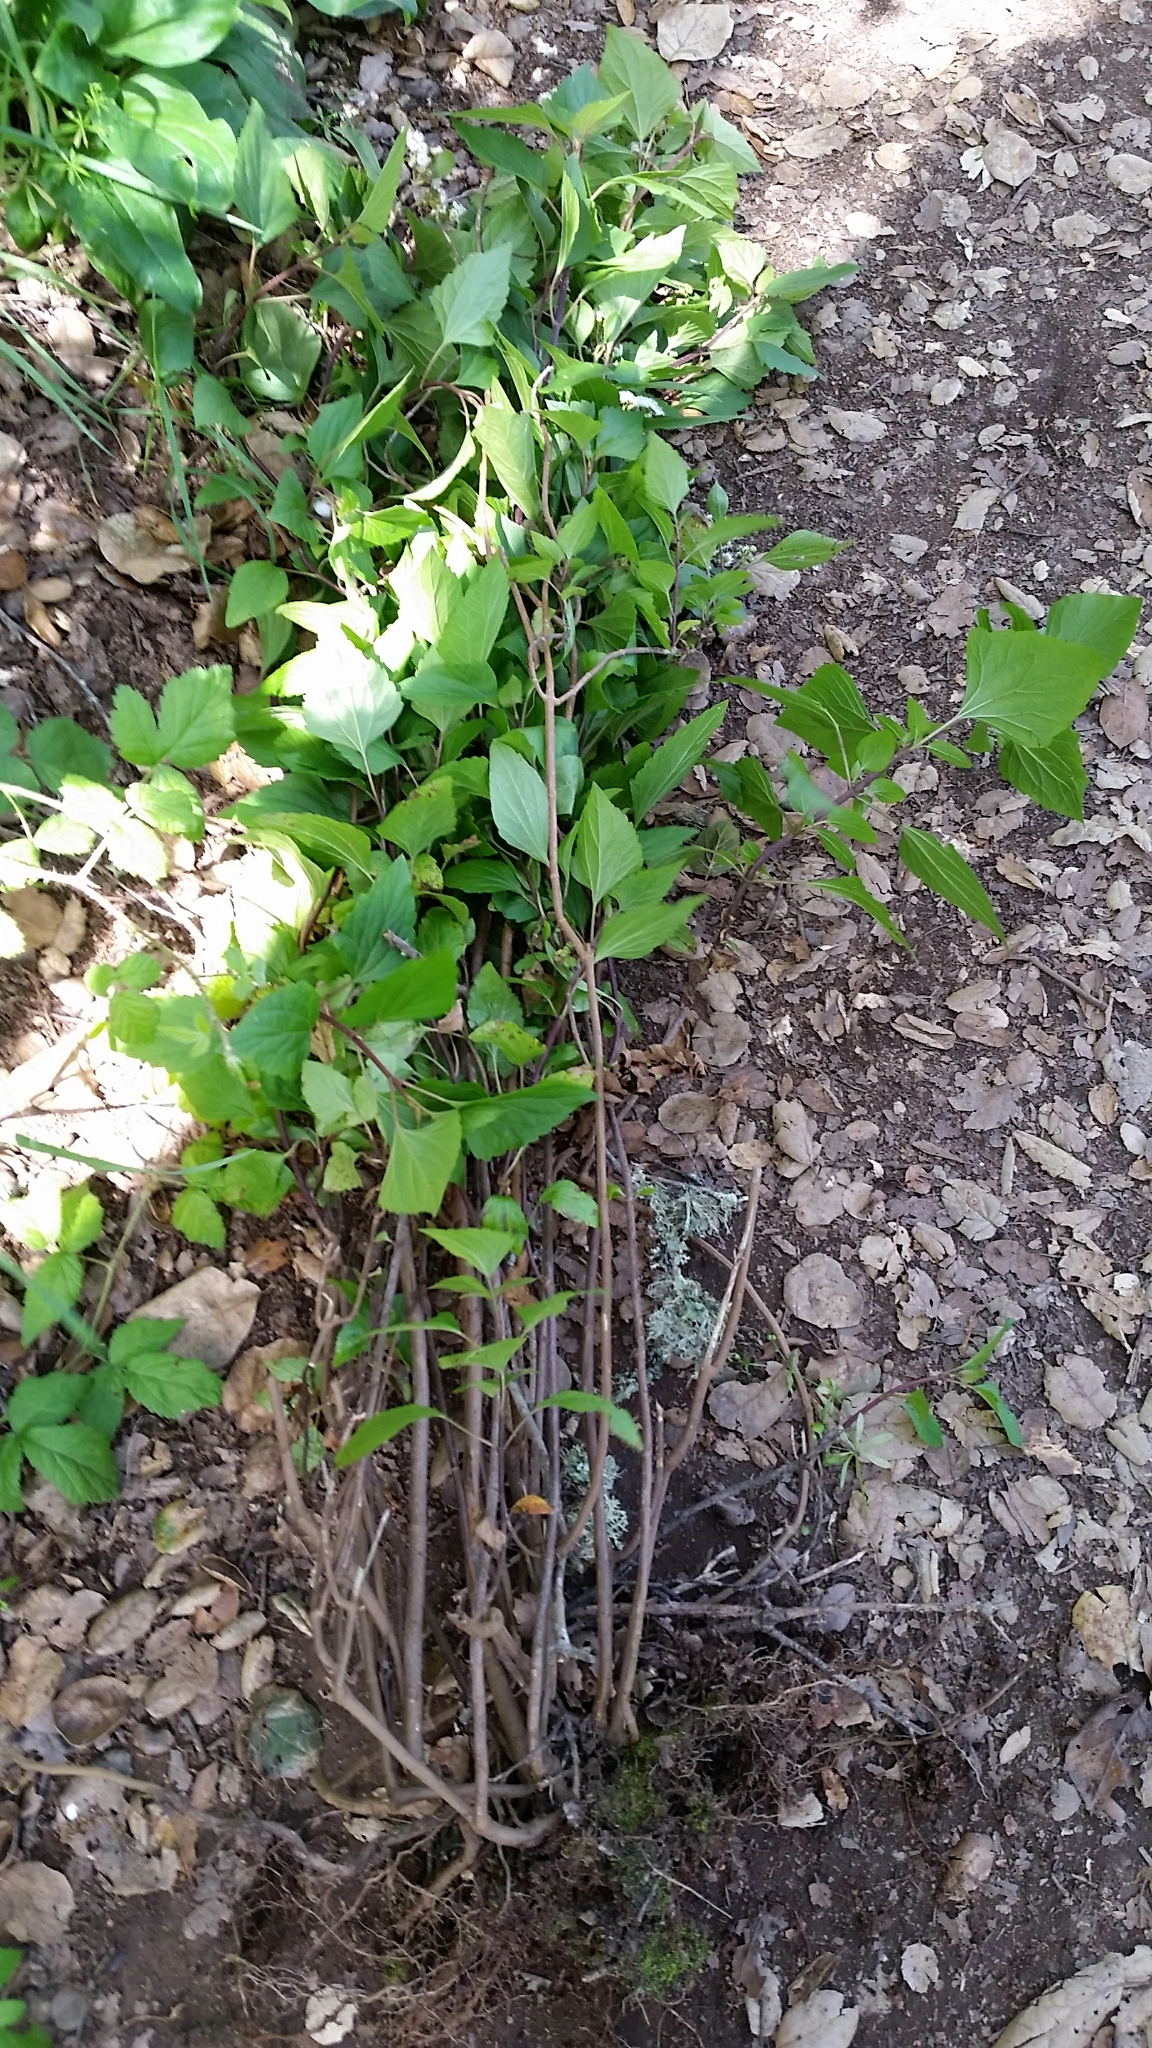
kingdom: Plantae
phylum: Tracheophyta
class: Magnoliopsida
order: Asterales
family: Asteraceae
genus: Ageratina
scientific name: Ageratina adenophora
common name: Sticky snakeroot
